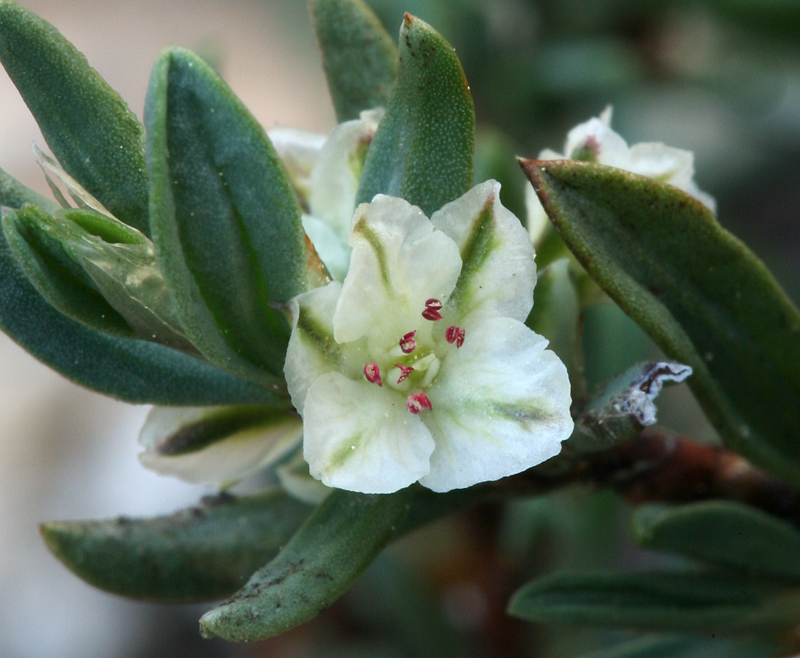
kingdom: Plantae
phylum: Tracheophyta
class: Magnoliopsida
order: Caryophyllales
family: Polygonaceae
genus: Polygonum
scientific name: Polygonum shastense
